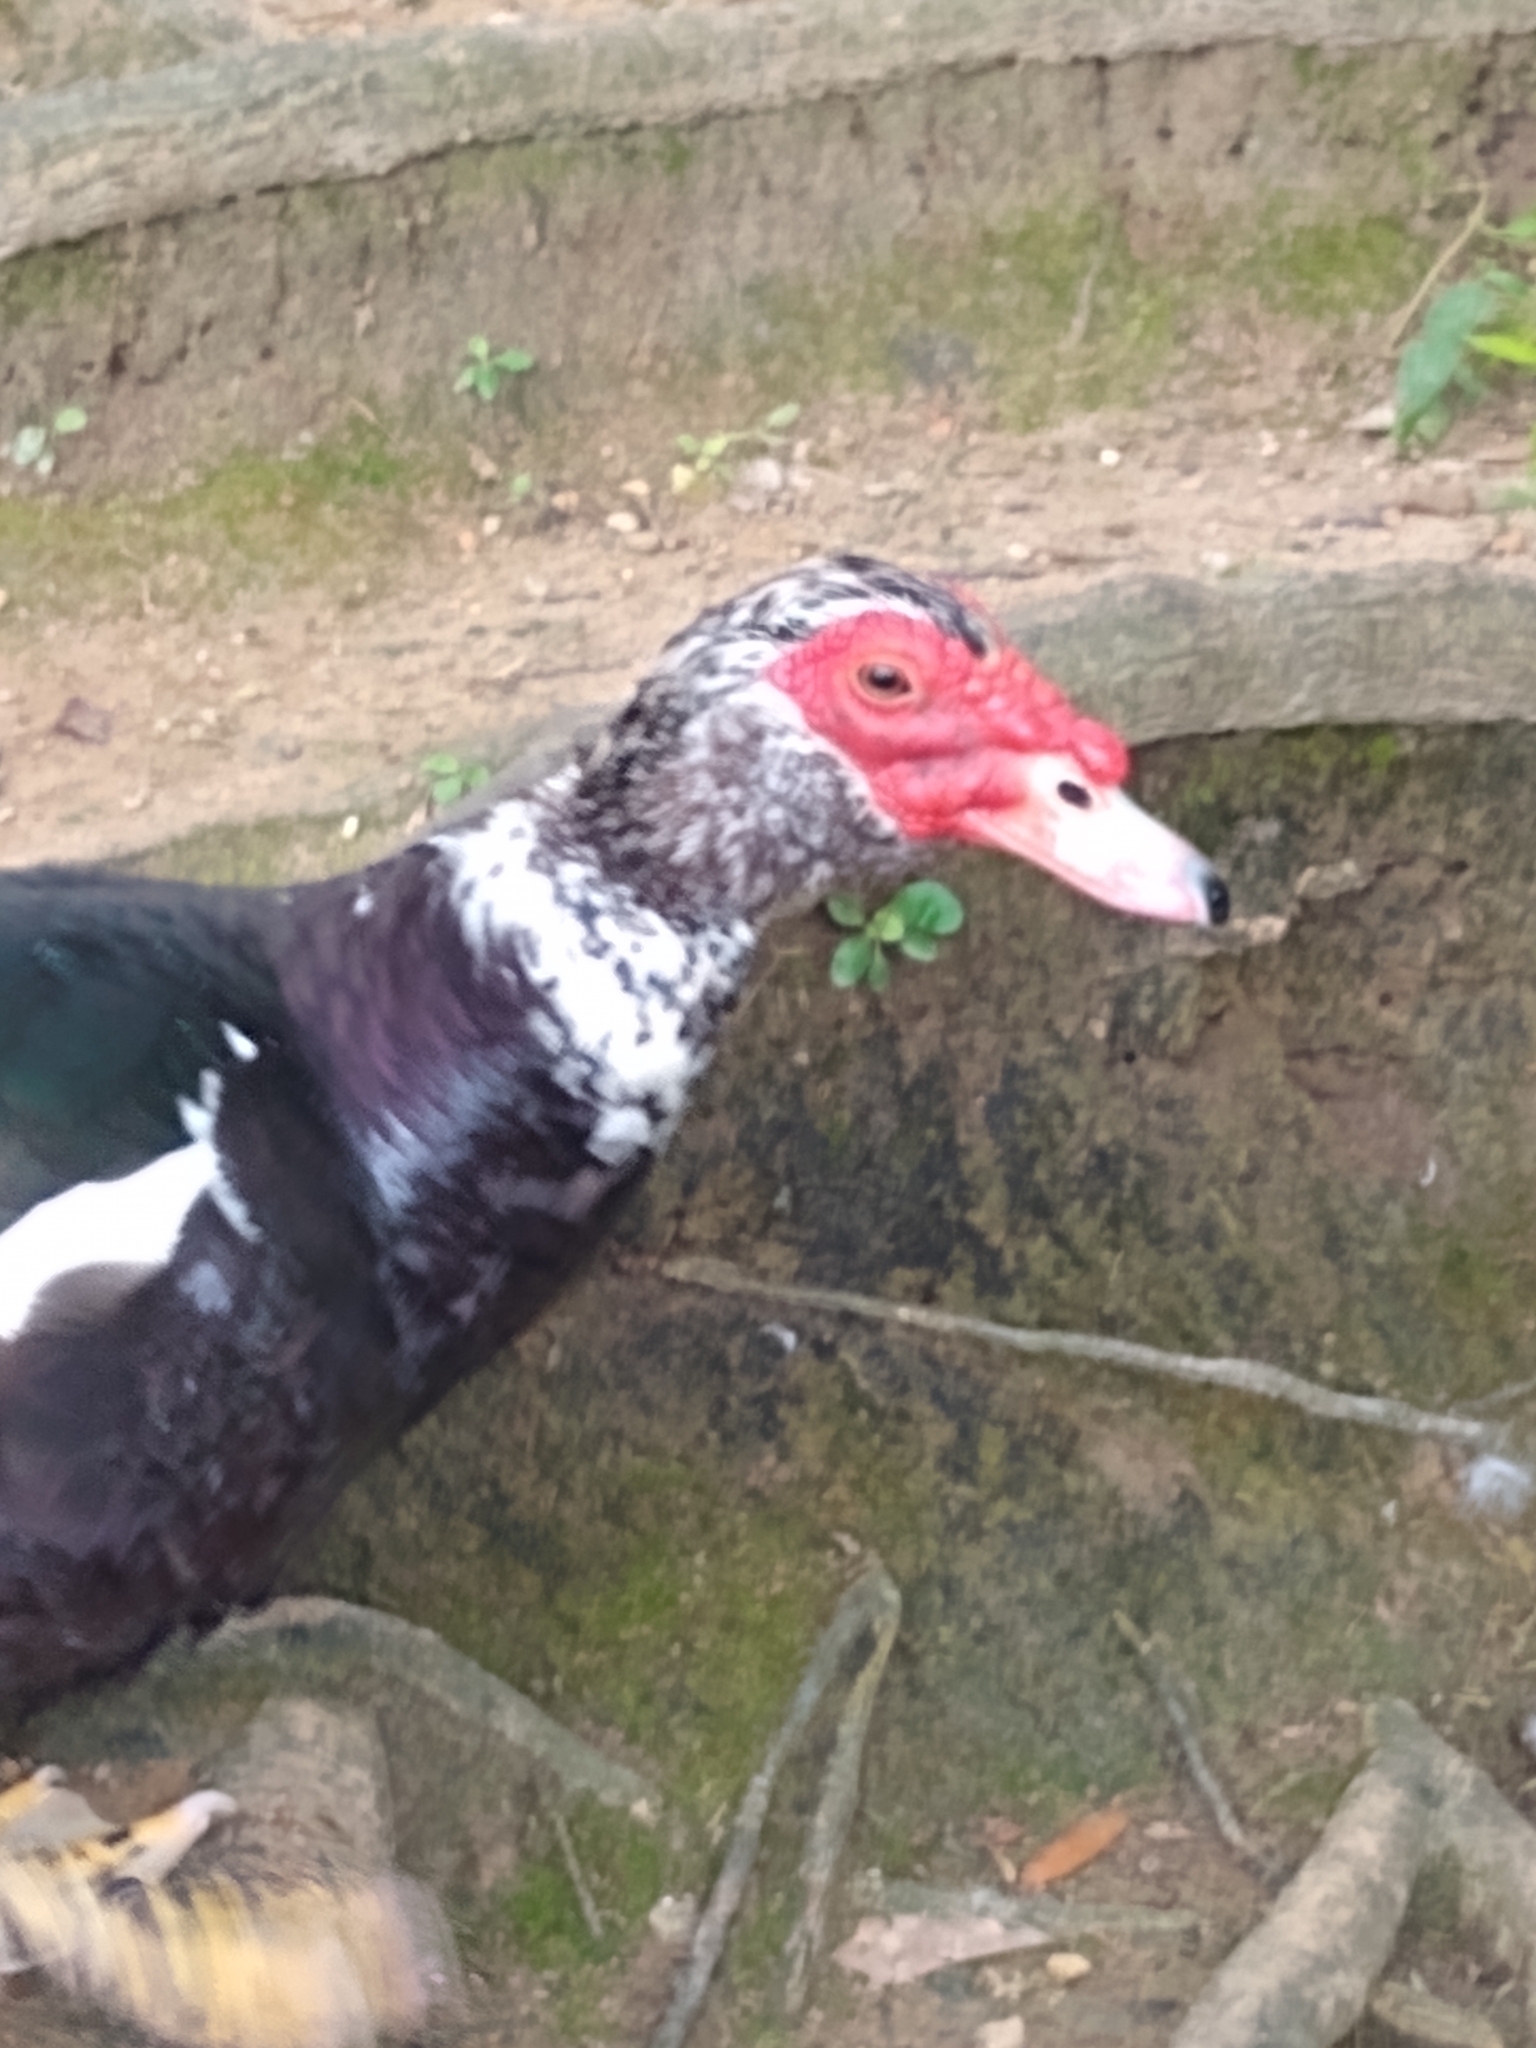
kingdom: Animalia
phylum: Chordata
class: Aves
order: Anseriformes
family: Anatidae
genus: Cairina
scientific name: Cairina moschata
